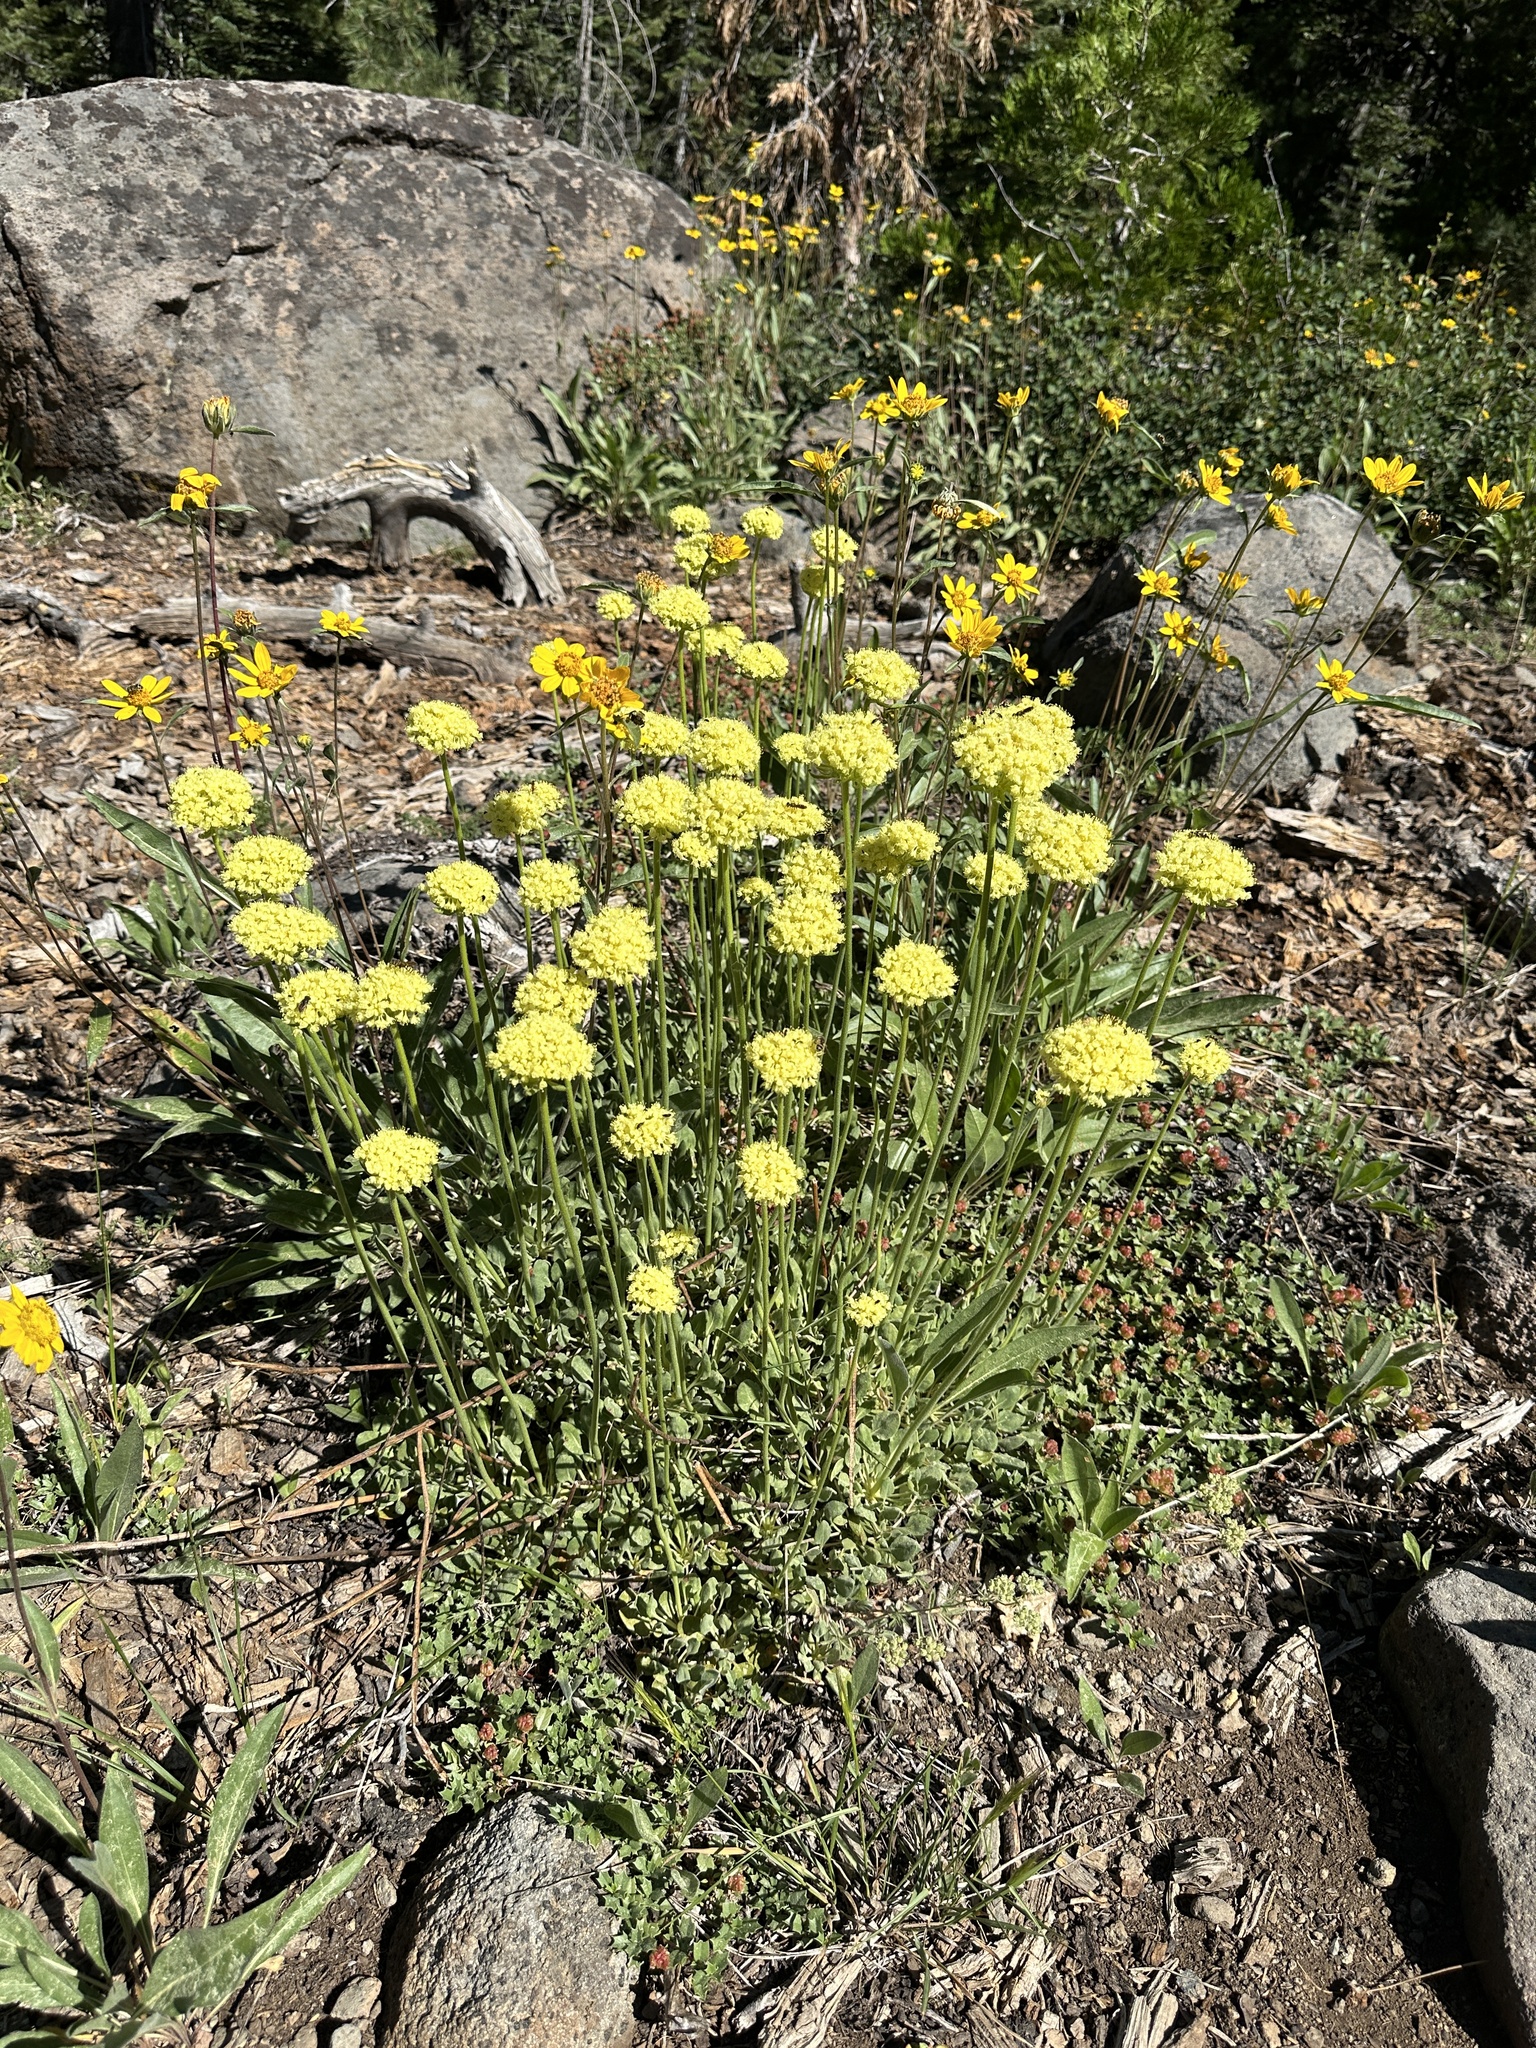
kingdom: Plantae
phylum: Tracheophyta
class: Magnoliopsida
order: Caryophyllales
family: Polygonaceae
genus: Eriogonum
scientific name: Eriogonum ursinum
